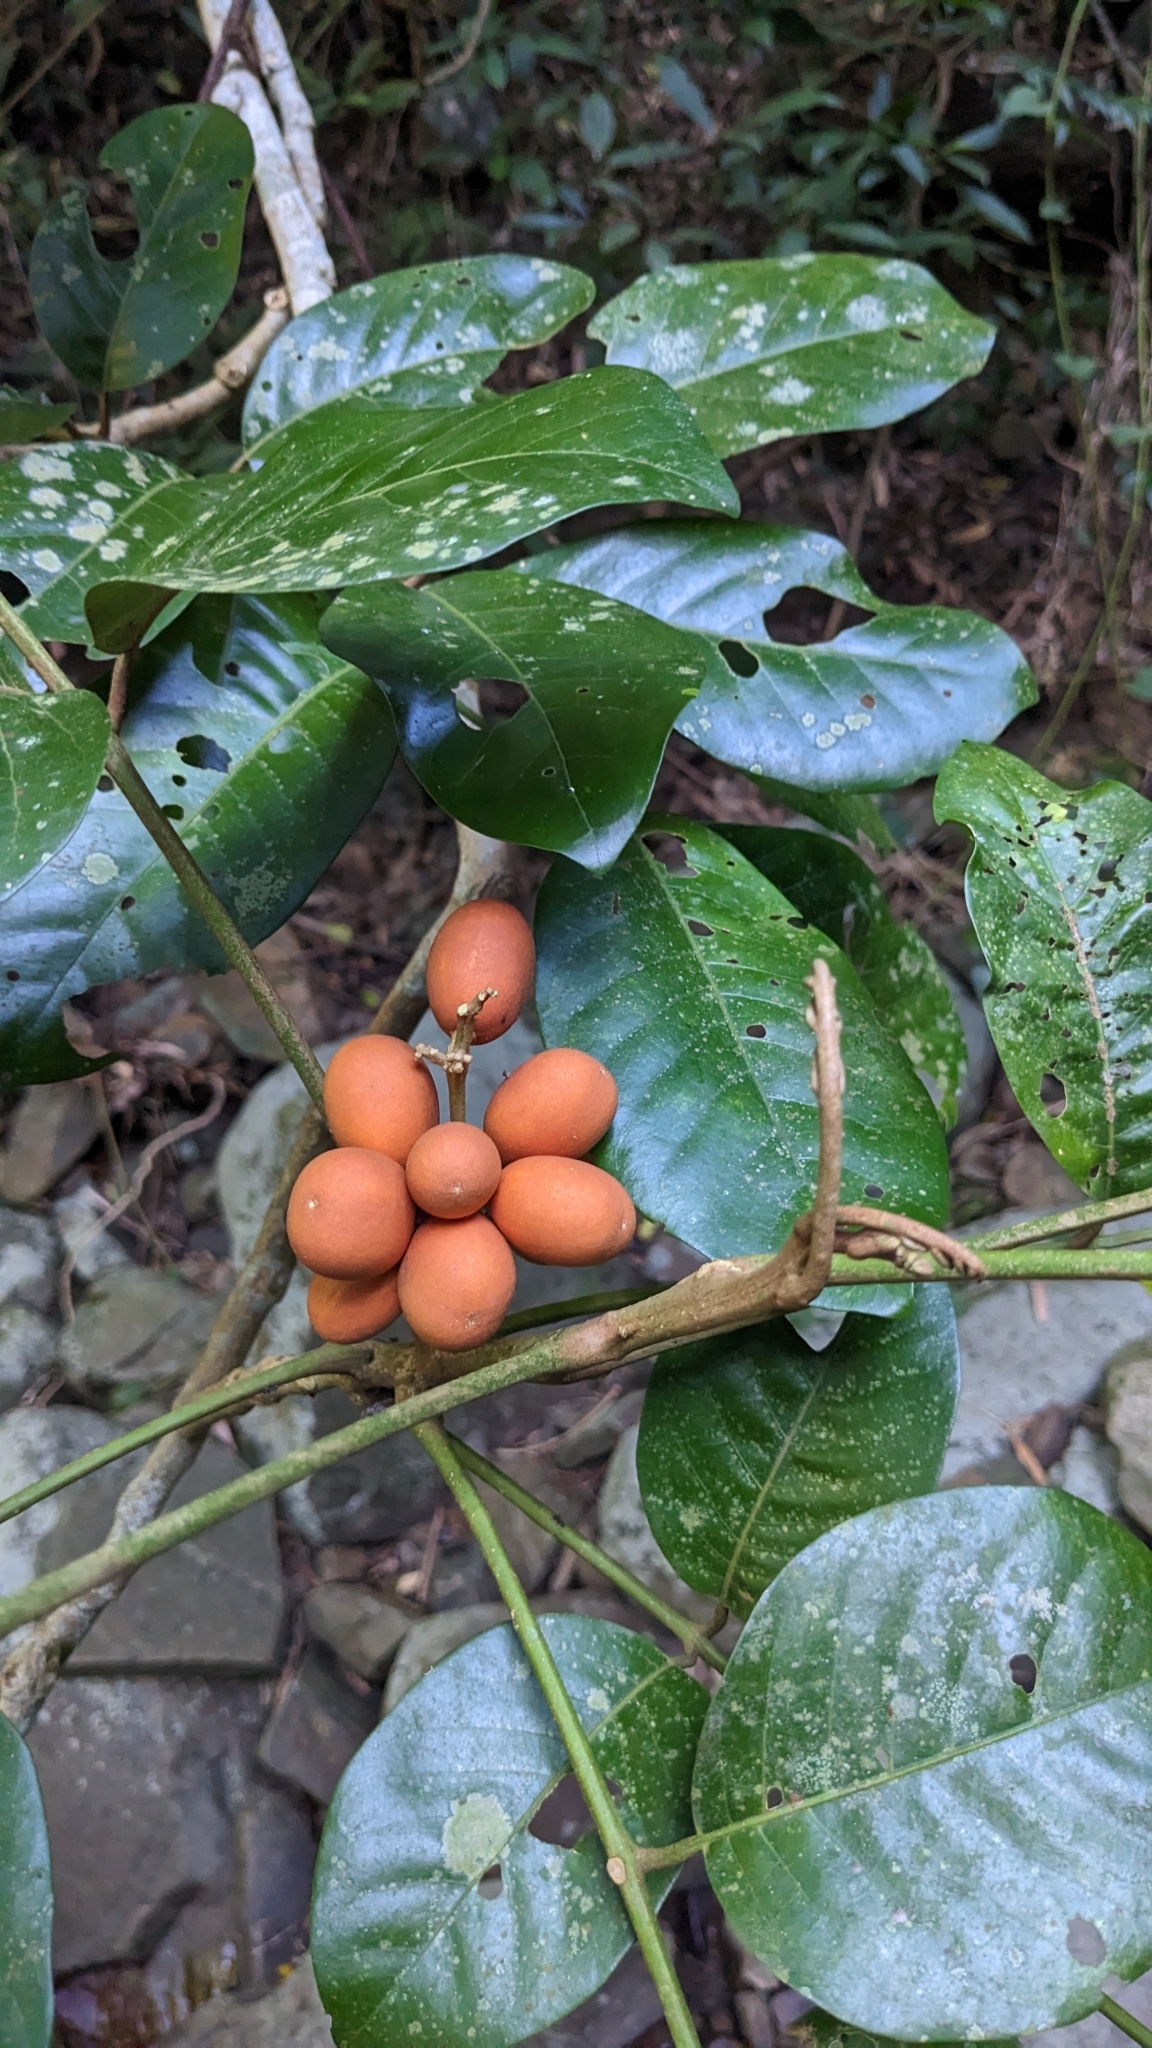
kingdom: Plantae
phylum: Tracheophyta
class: Magnoliopsida
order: Sapindales
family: Meliaceae
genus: Aglaia
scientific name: Aglaia rimosa
